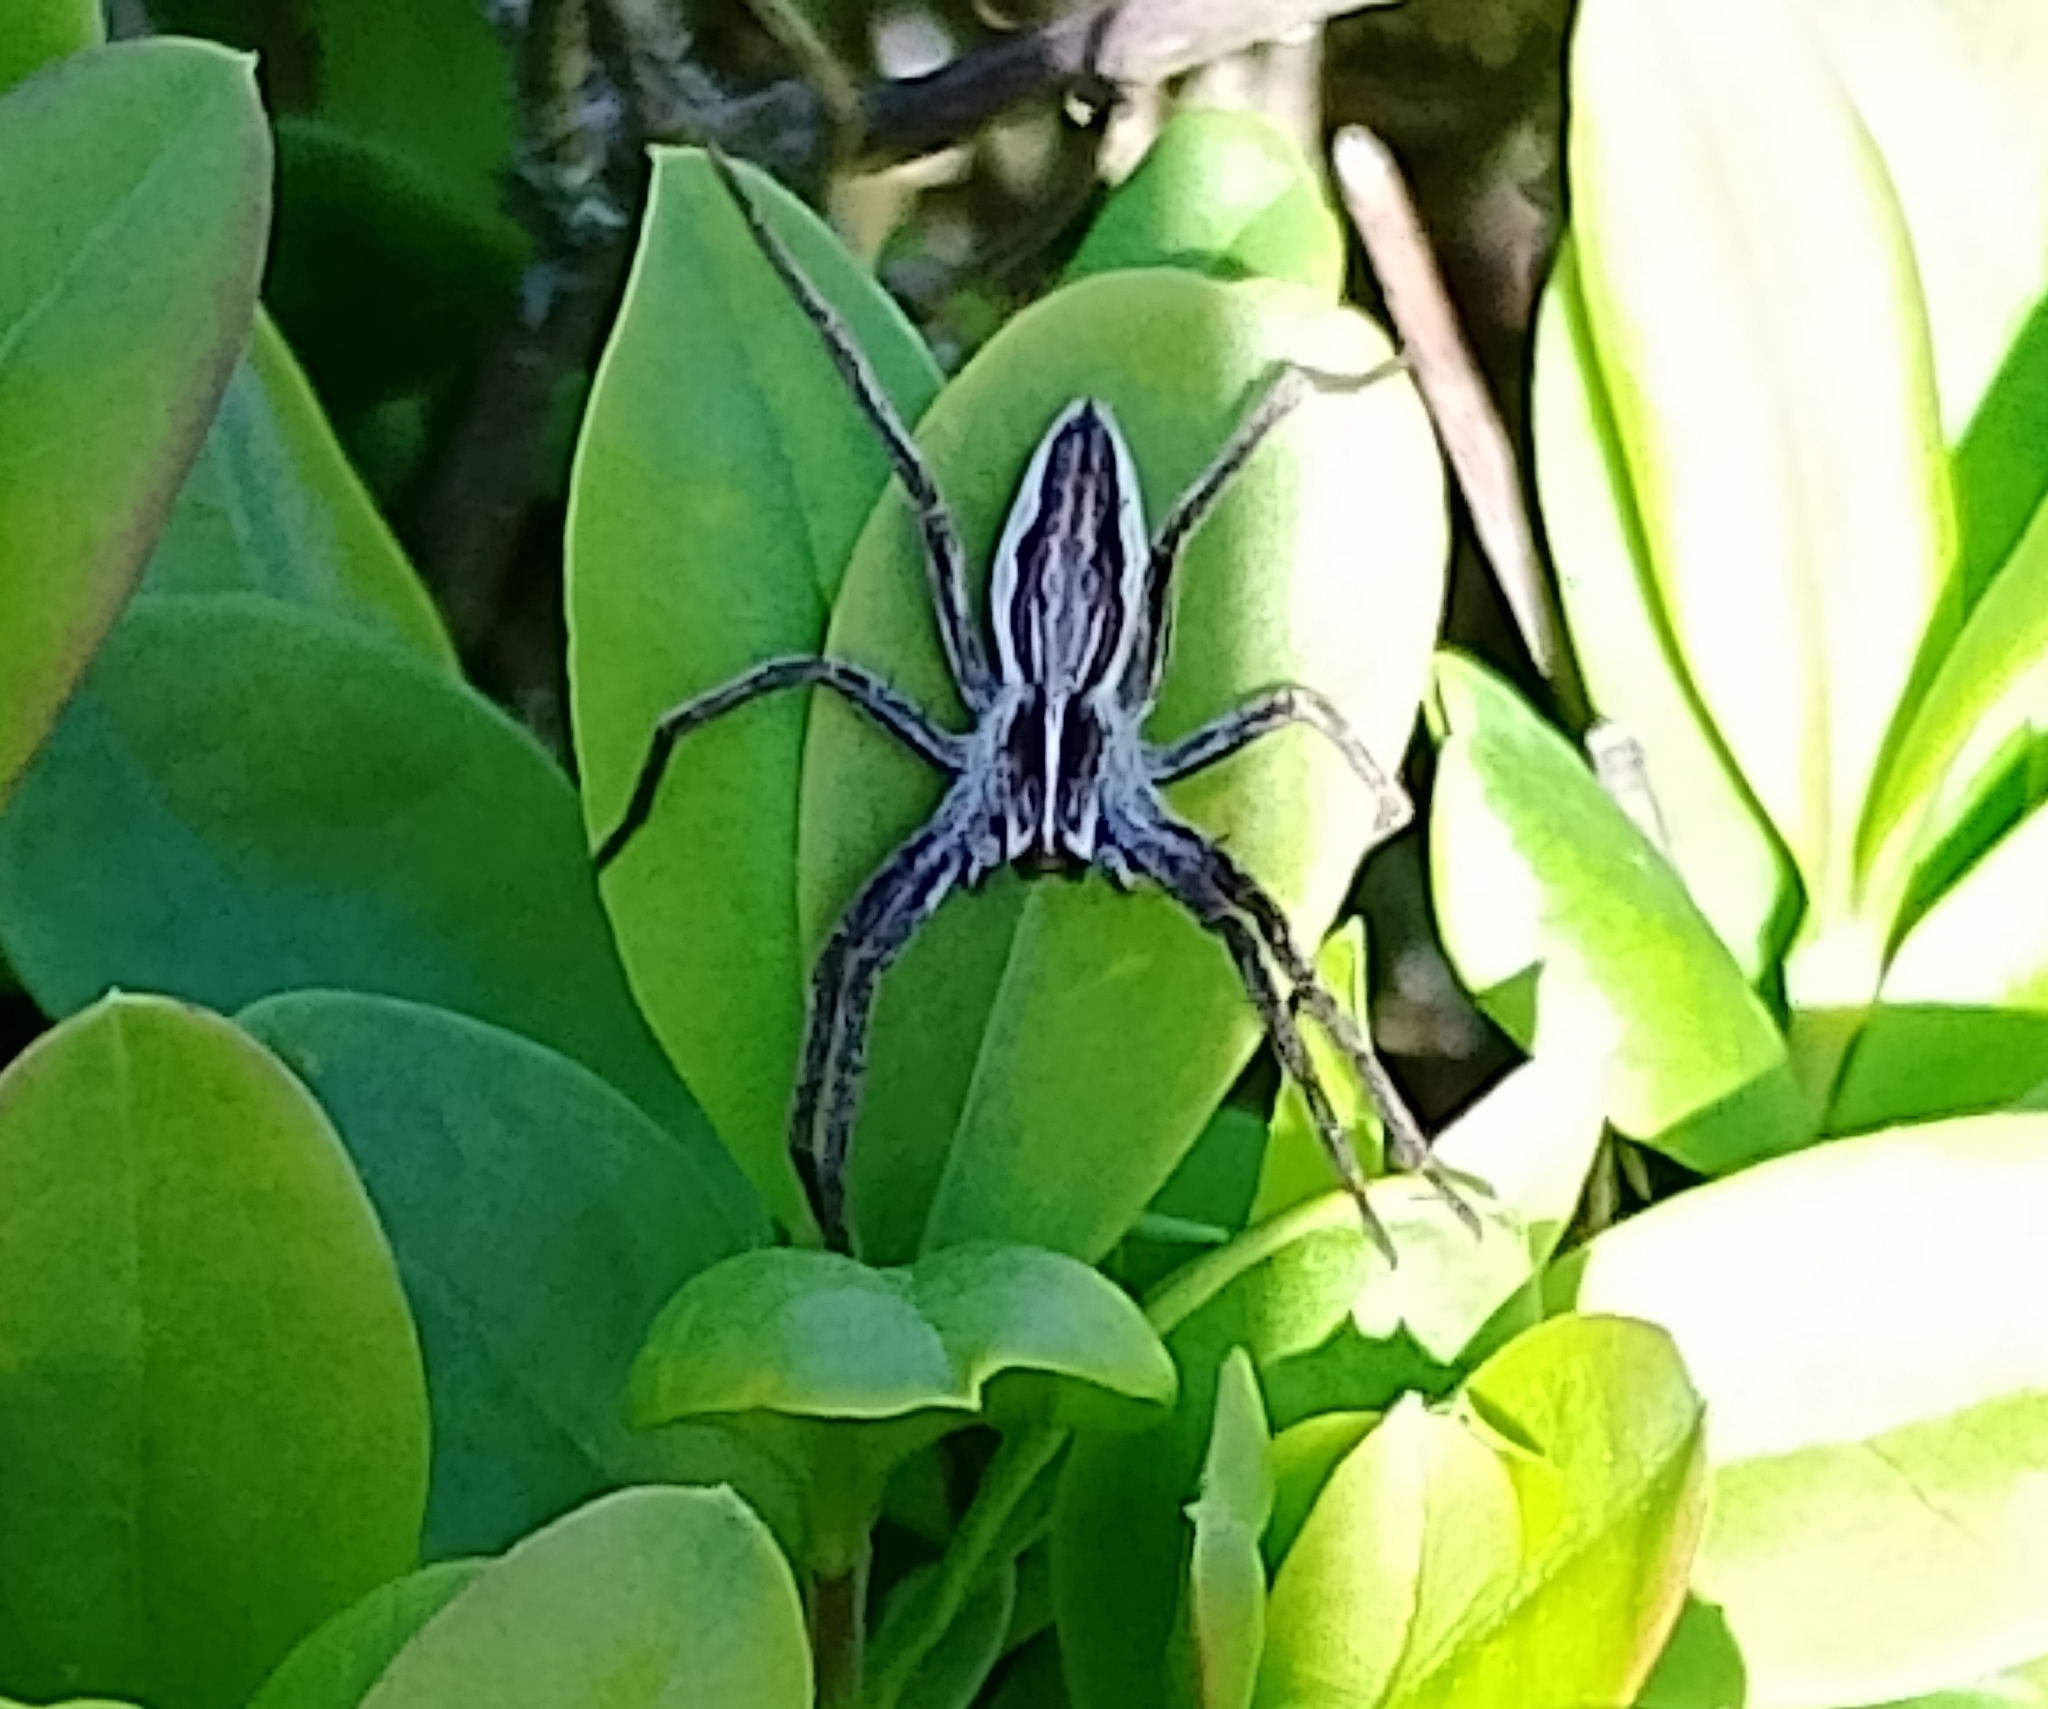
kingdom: Animalia
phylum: Arthropoda
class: Arachnida
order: Araneae
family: Pisauridae
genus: Pisaura
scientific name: Pisaura mirabilis
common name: Tent spider
